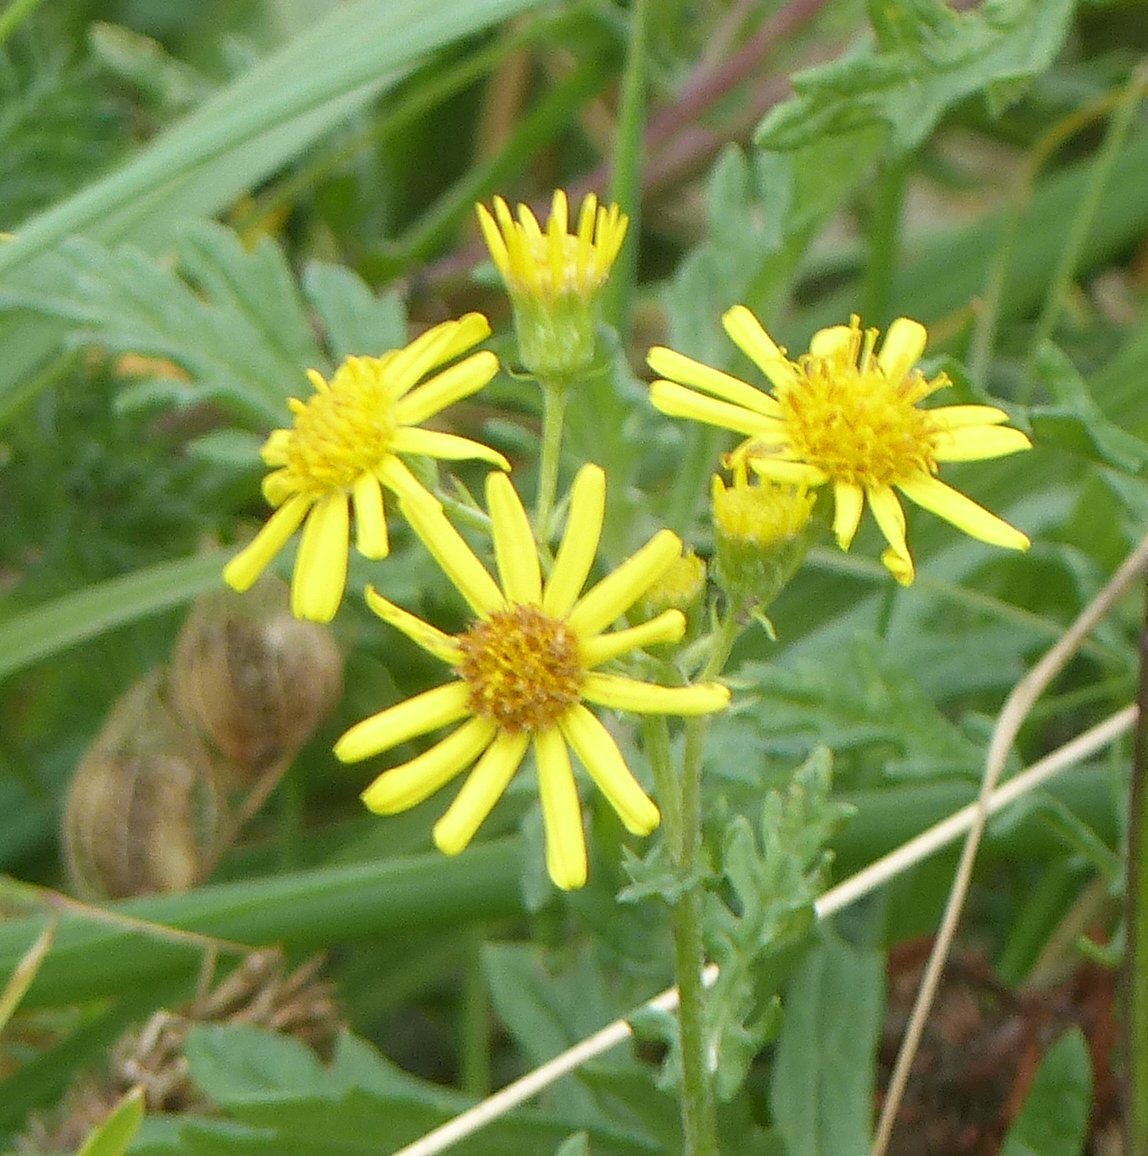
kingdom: Plantae
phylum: Tracheophyta
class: Magnoliopsida
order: Asterales
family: Asteraceae
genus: Jacobaea
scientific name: Jacobaea erucifolia
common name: Hoary ragwort
